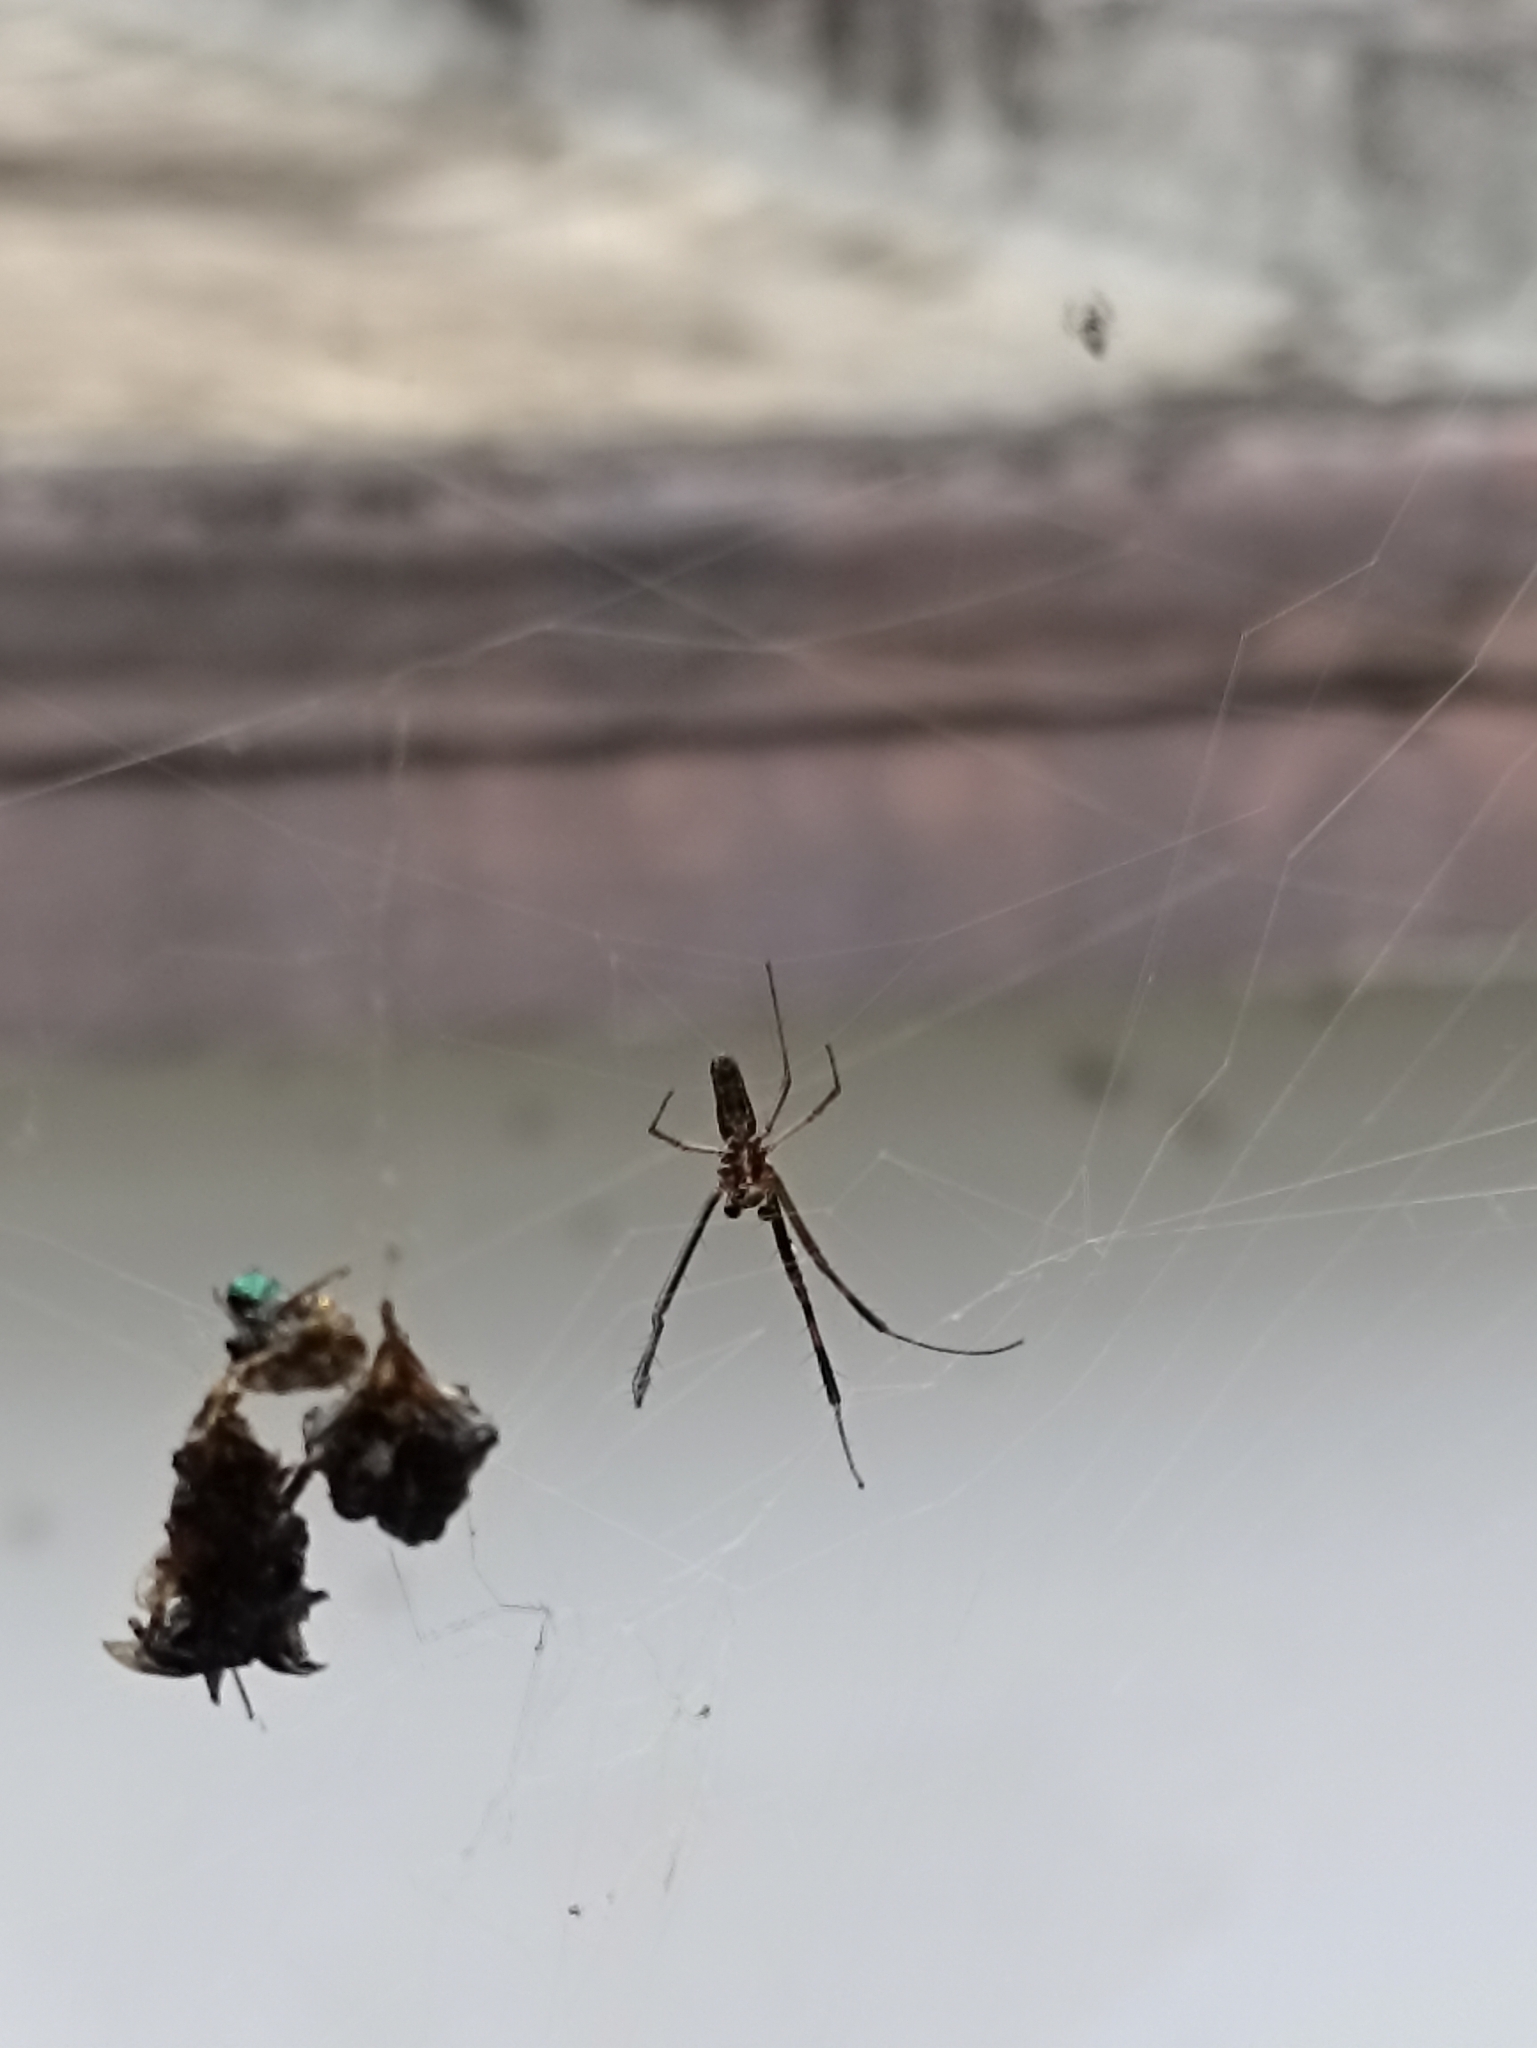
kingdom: Animalia
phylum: Arthropoda
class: Arachnida
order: Araneae
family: Araneidae
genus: Trichonephila
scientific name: Trichonephila clavipes
